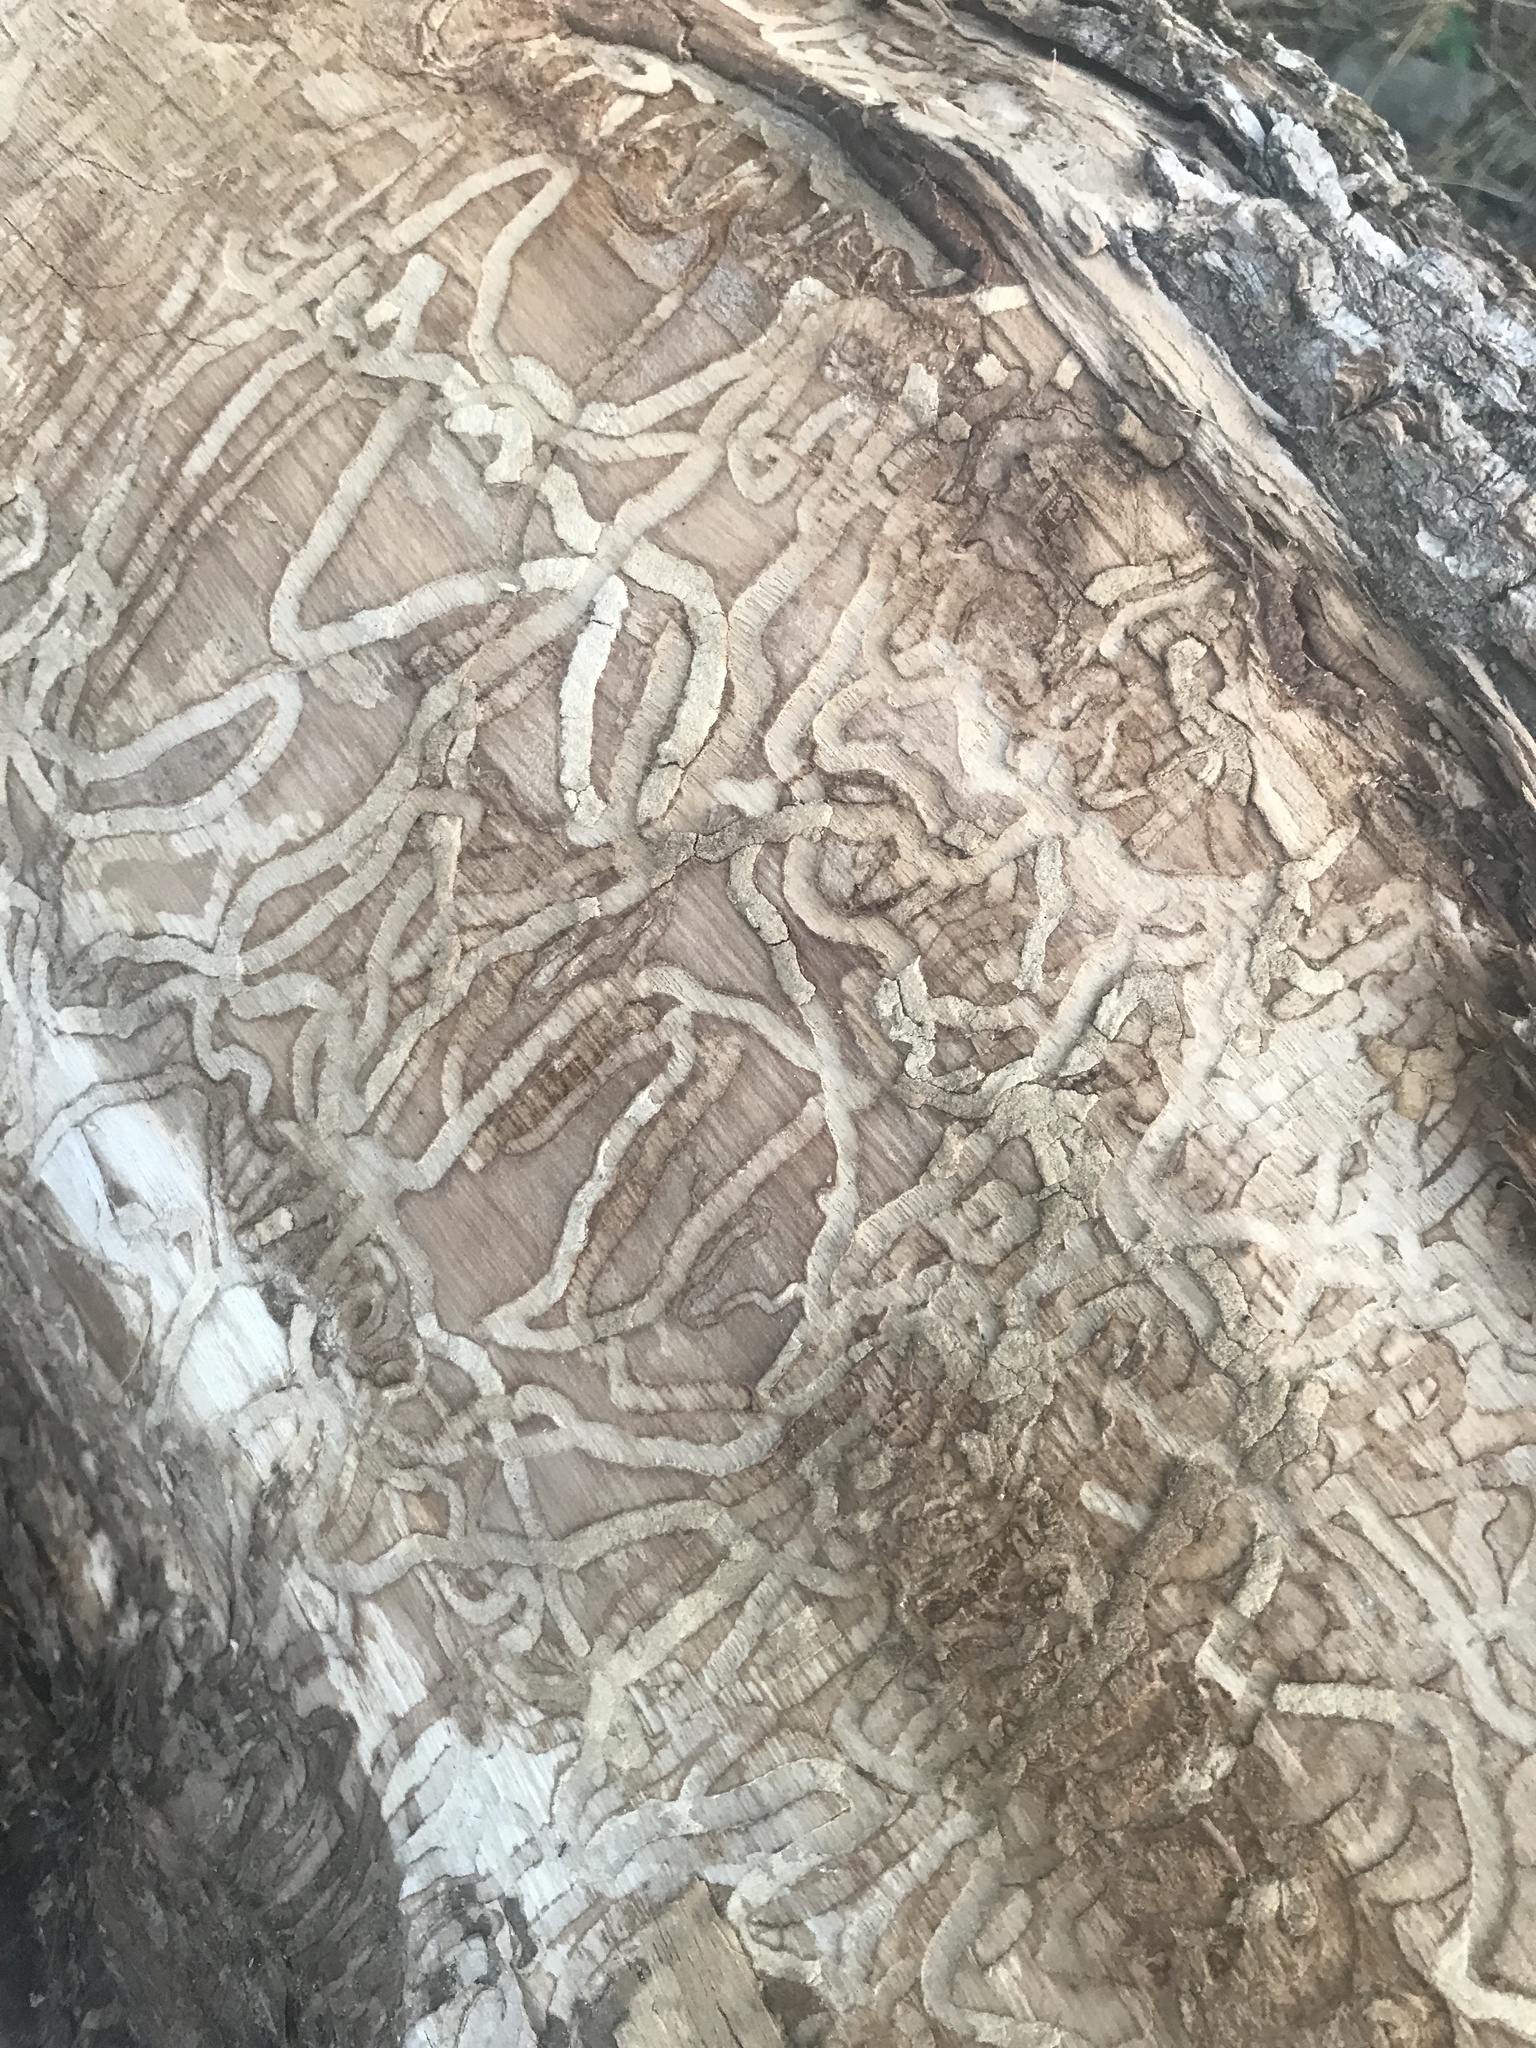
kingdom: Animalia
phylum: Arthropoda
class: Insecta
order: Coleoptera
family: Buprestidae
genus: Agrilus
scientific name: Agrilus planipennis
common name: Emerald ash borer
